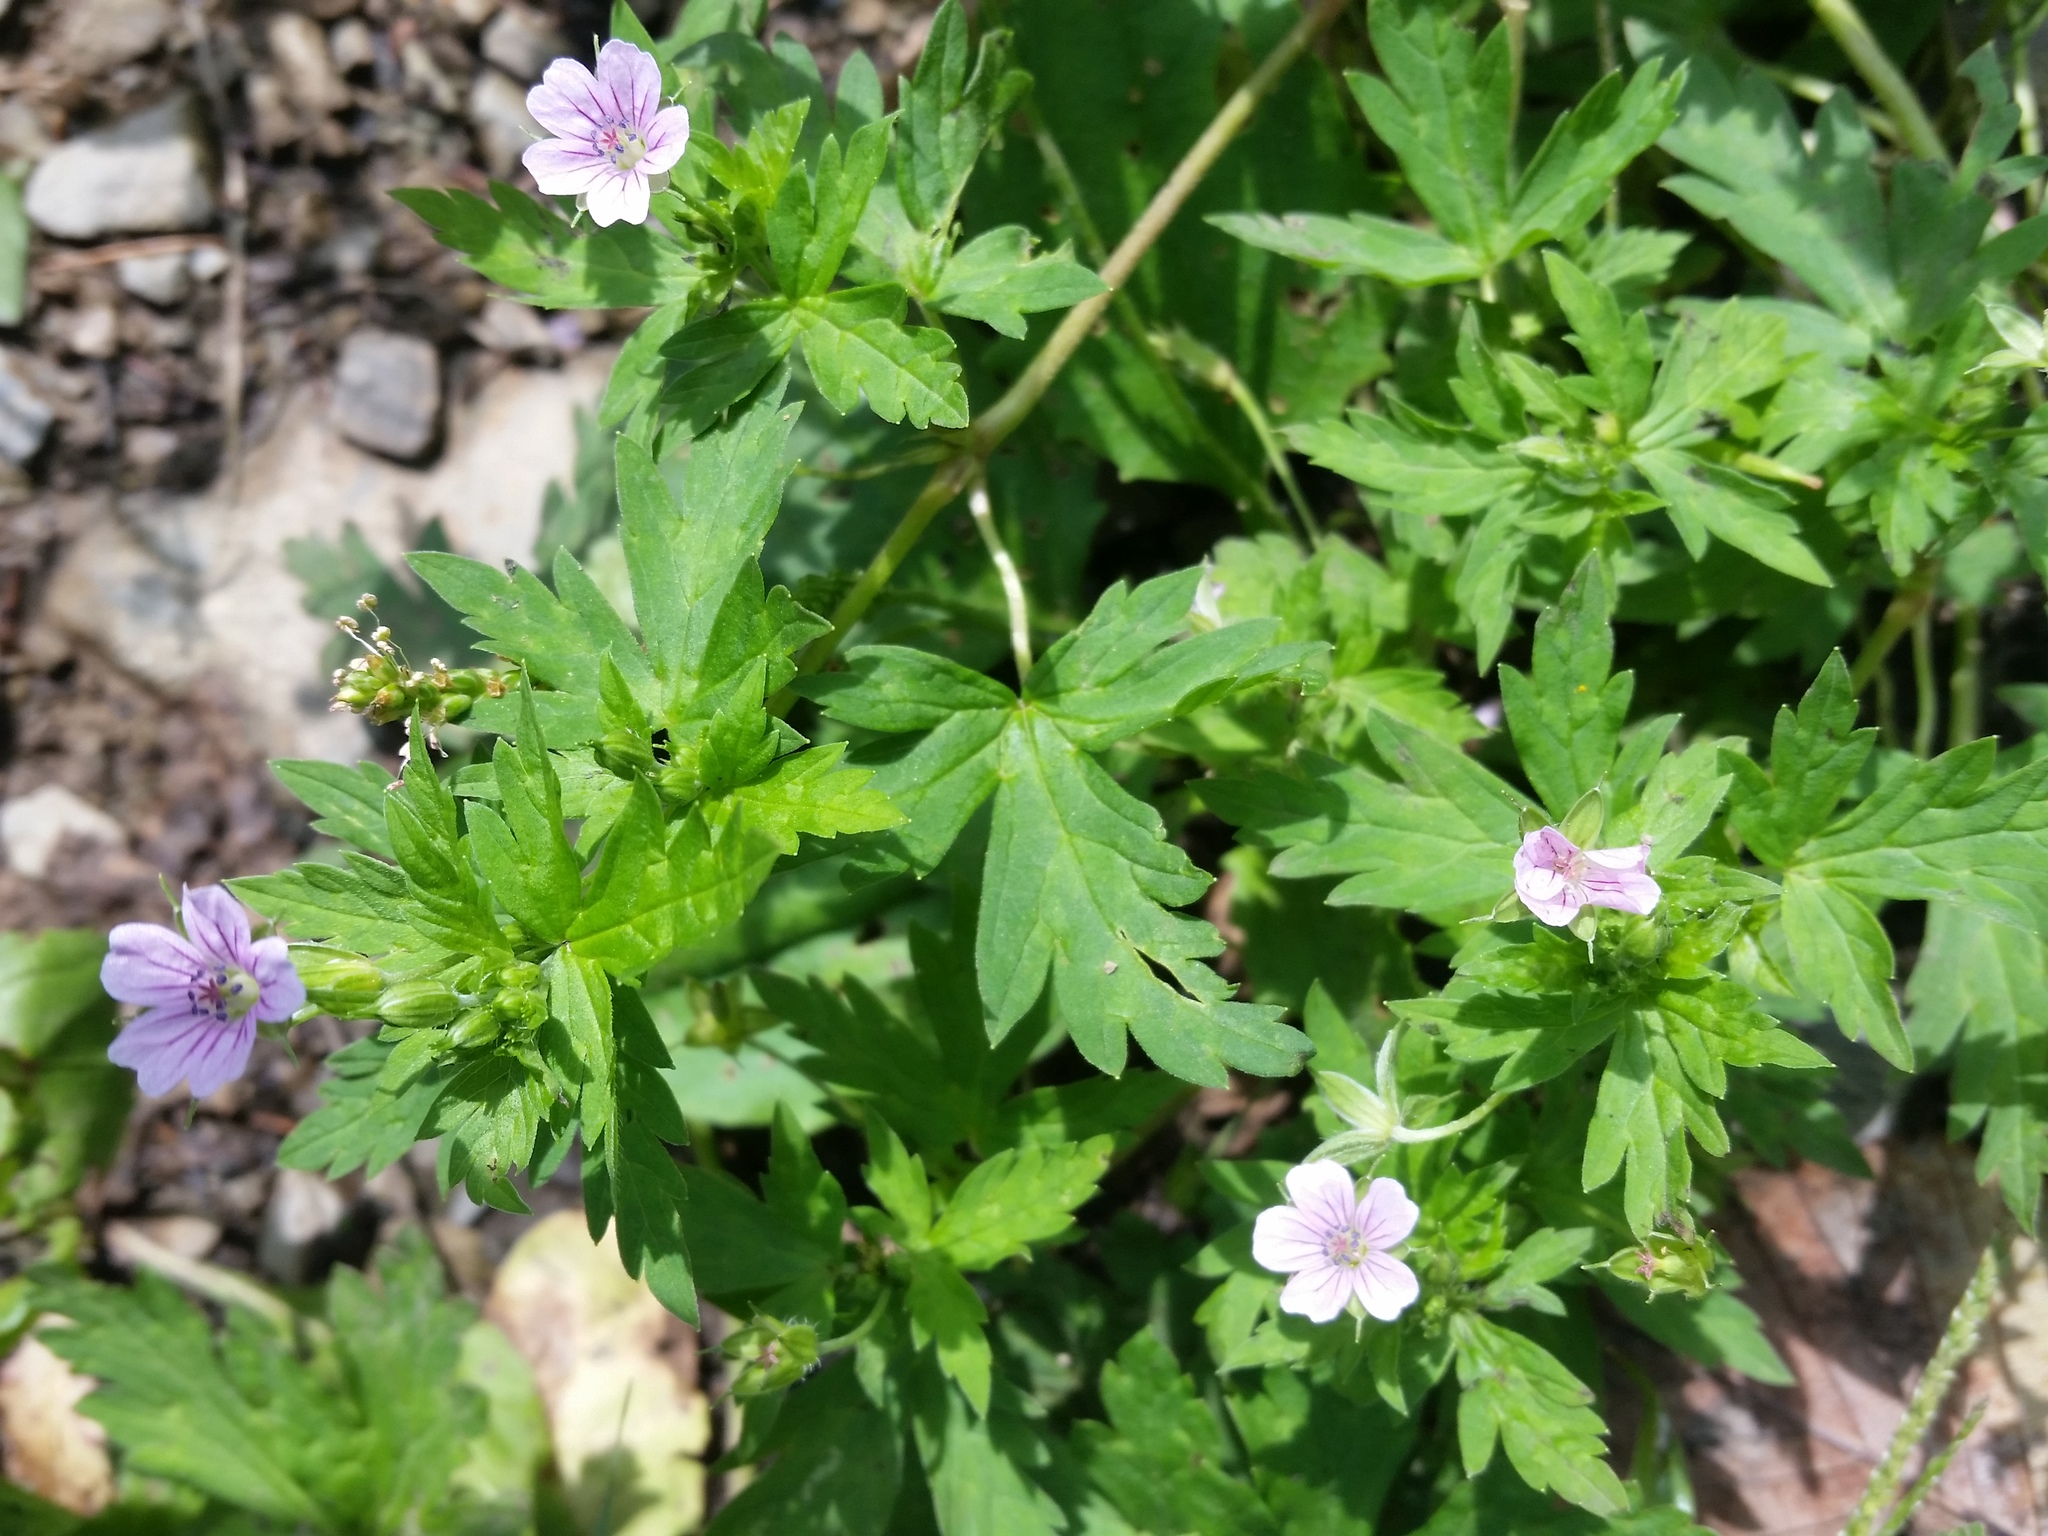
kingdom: Plantae
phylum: Tracheophyta
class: Magnoliopsida
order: Geraniales
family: Geraniaceae
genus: Geranium
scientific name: Geranium sibiricum
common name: Siberian crane's-bill
